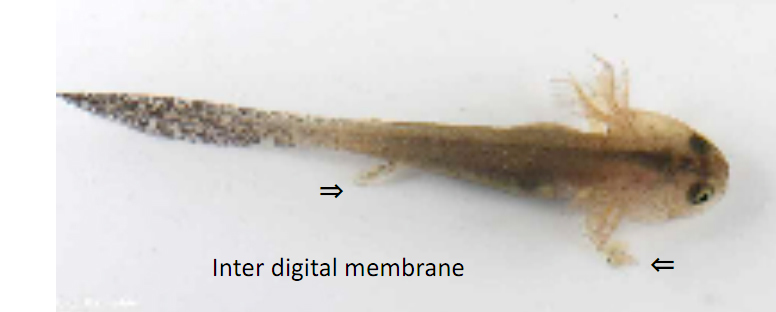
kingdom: Animalia
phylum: Chordata
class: Amphibia
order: Caudata
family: Hynobiidae
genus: Hynobius
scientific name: Hynobius leechii
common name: Gensan salamander
